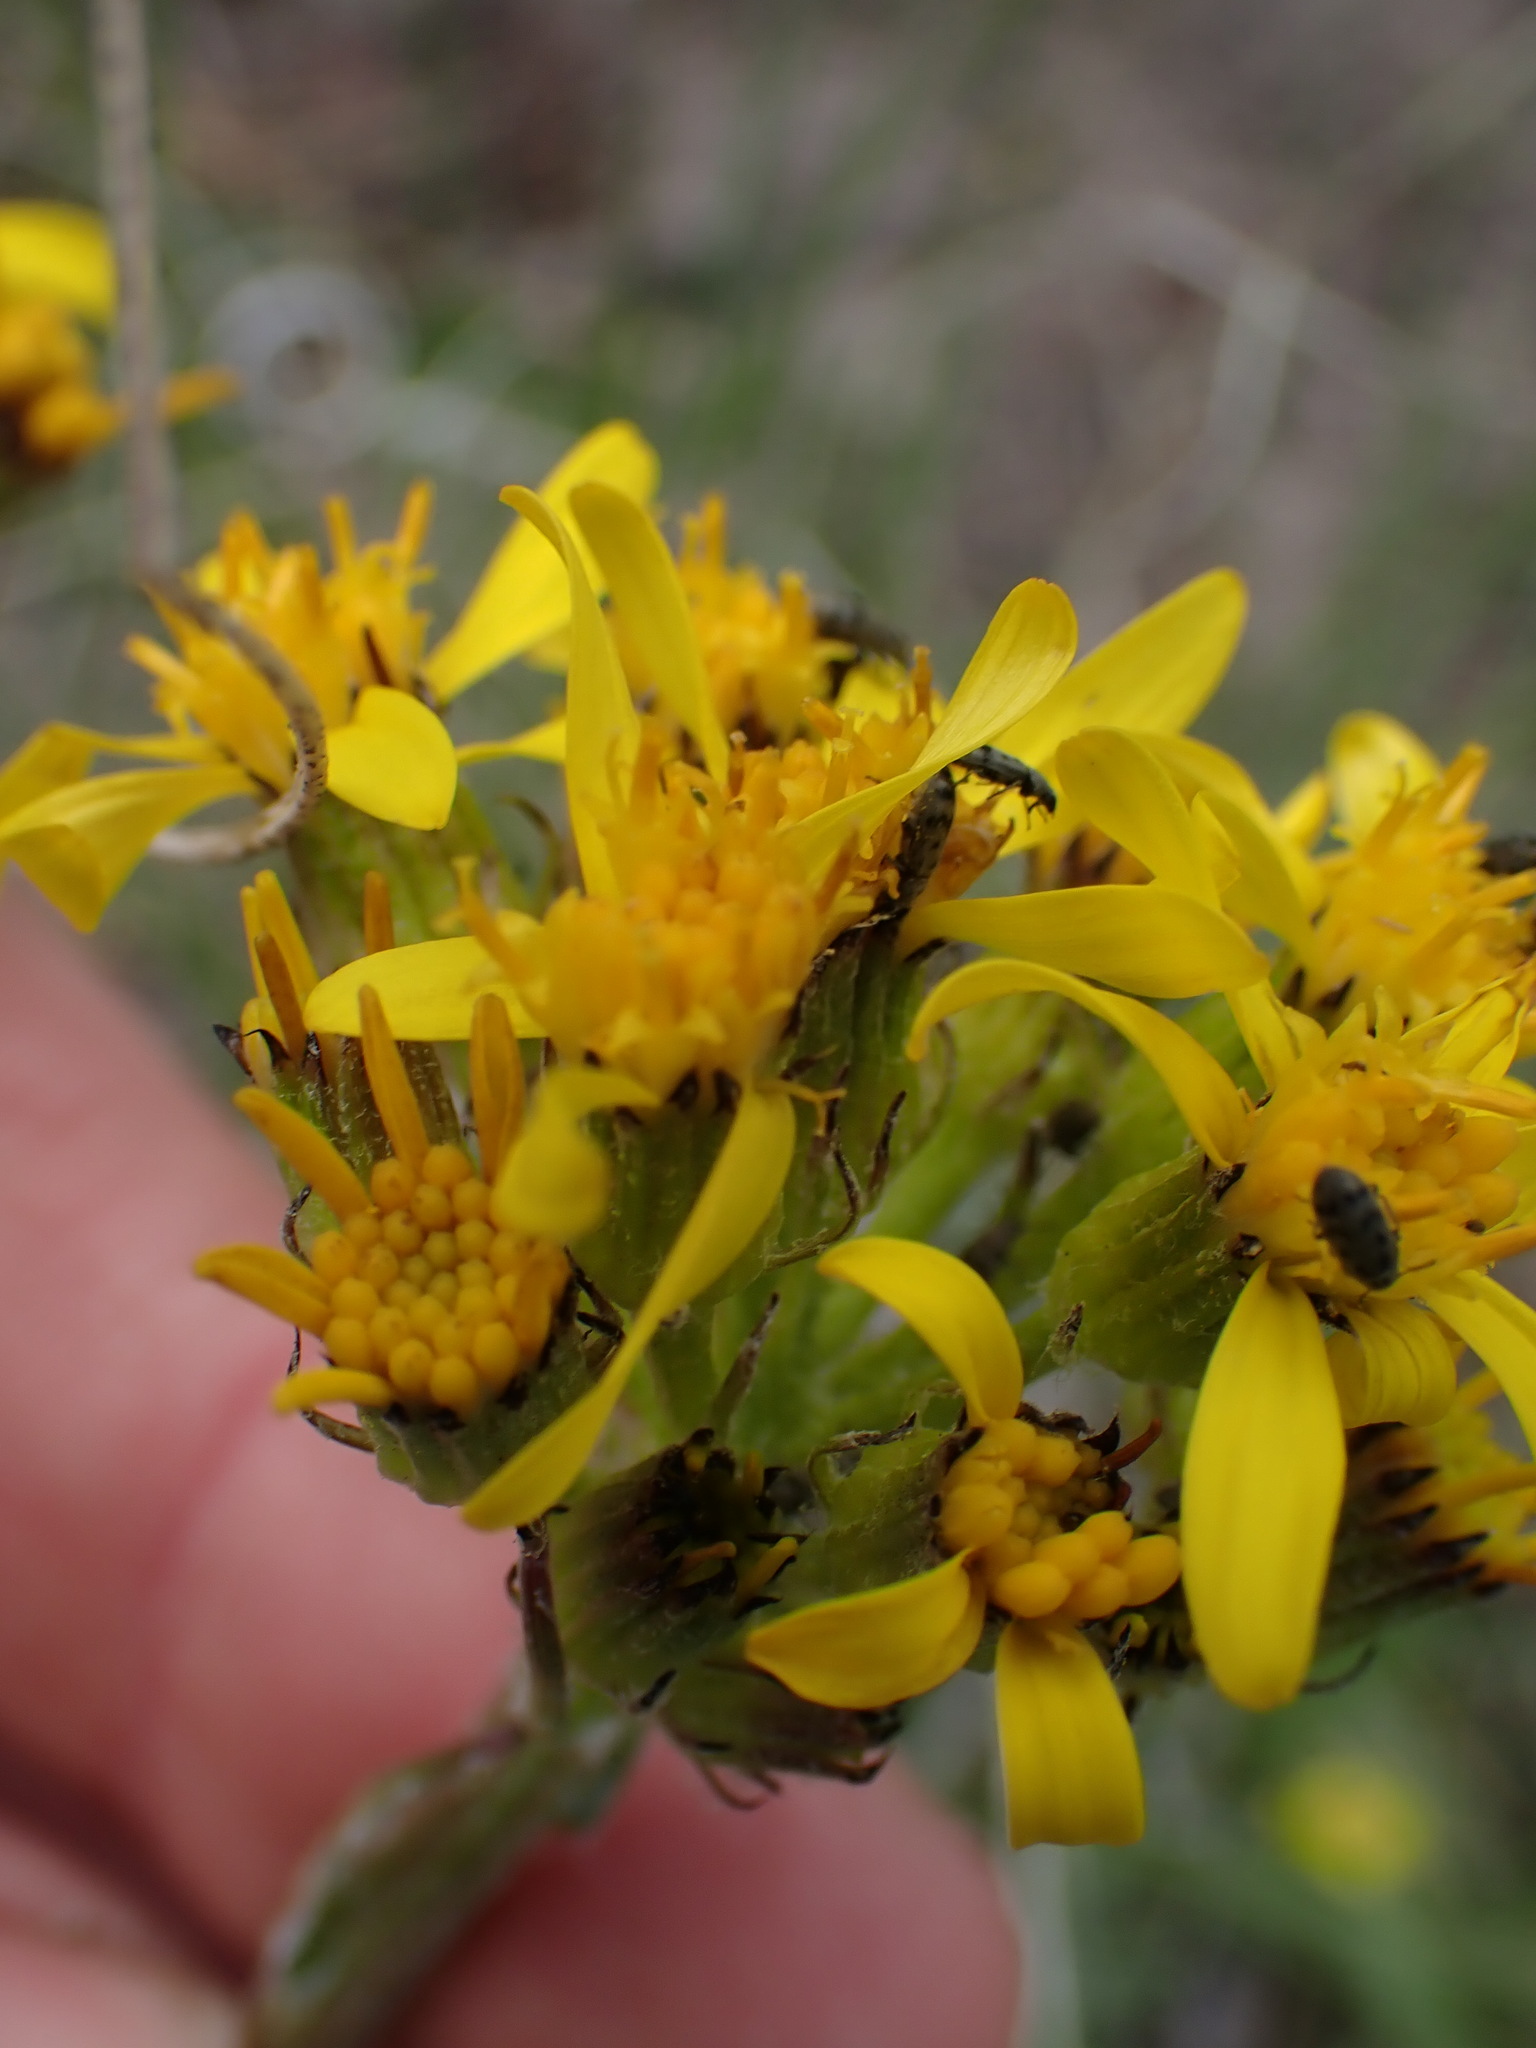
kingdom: Plantae
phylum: Tracheophyta
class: Magnoliopsida
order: Asterales
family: Asteraceae
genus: Senecio
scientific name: Senecio integerrimus
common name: Gaugeplant
